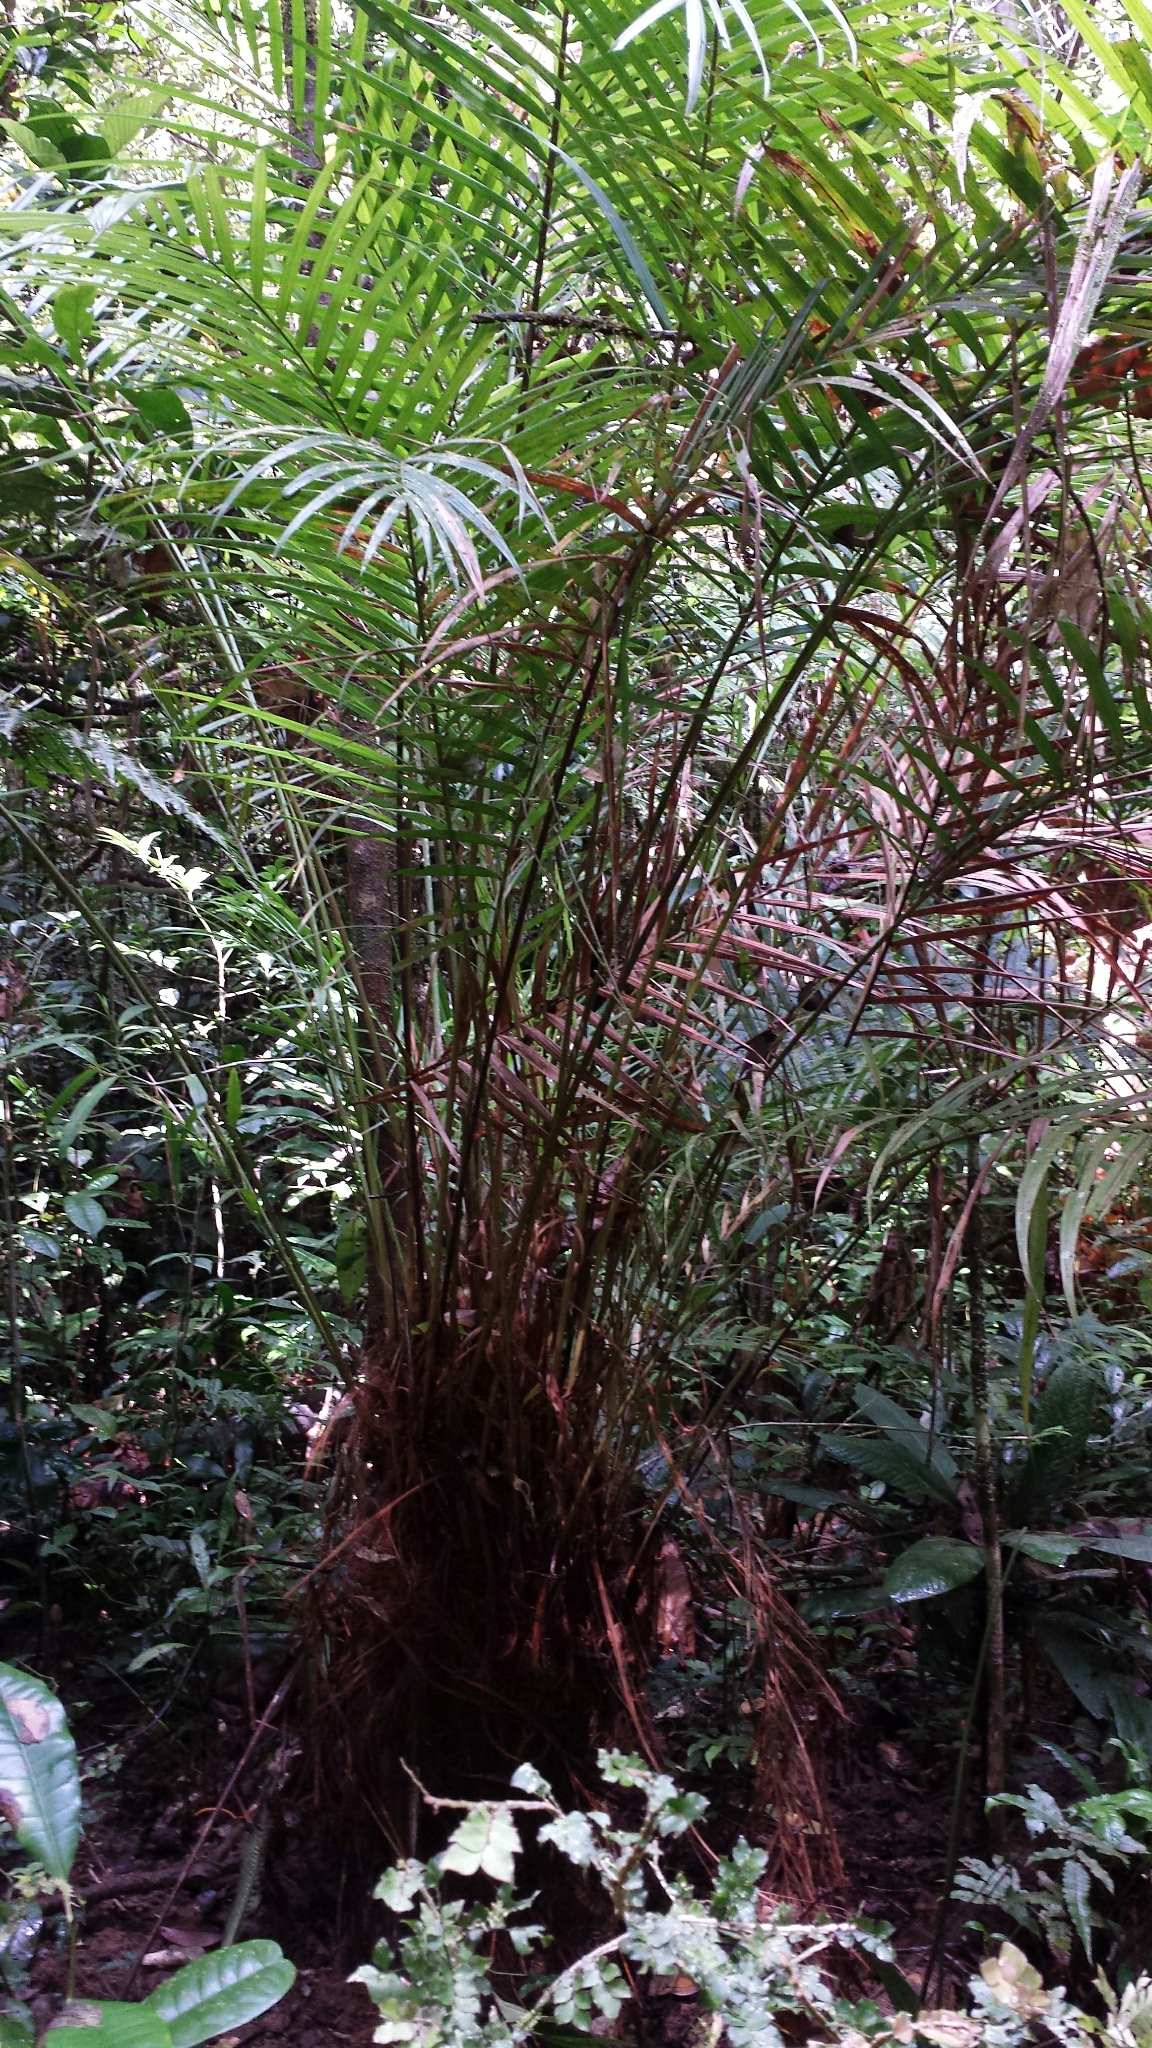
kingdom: Plantae
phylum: Tracheophyta
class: Liliopsida
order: Arecales
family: Arecaceae
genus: Dypsis
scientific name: Dypsis fibrosa
